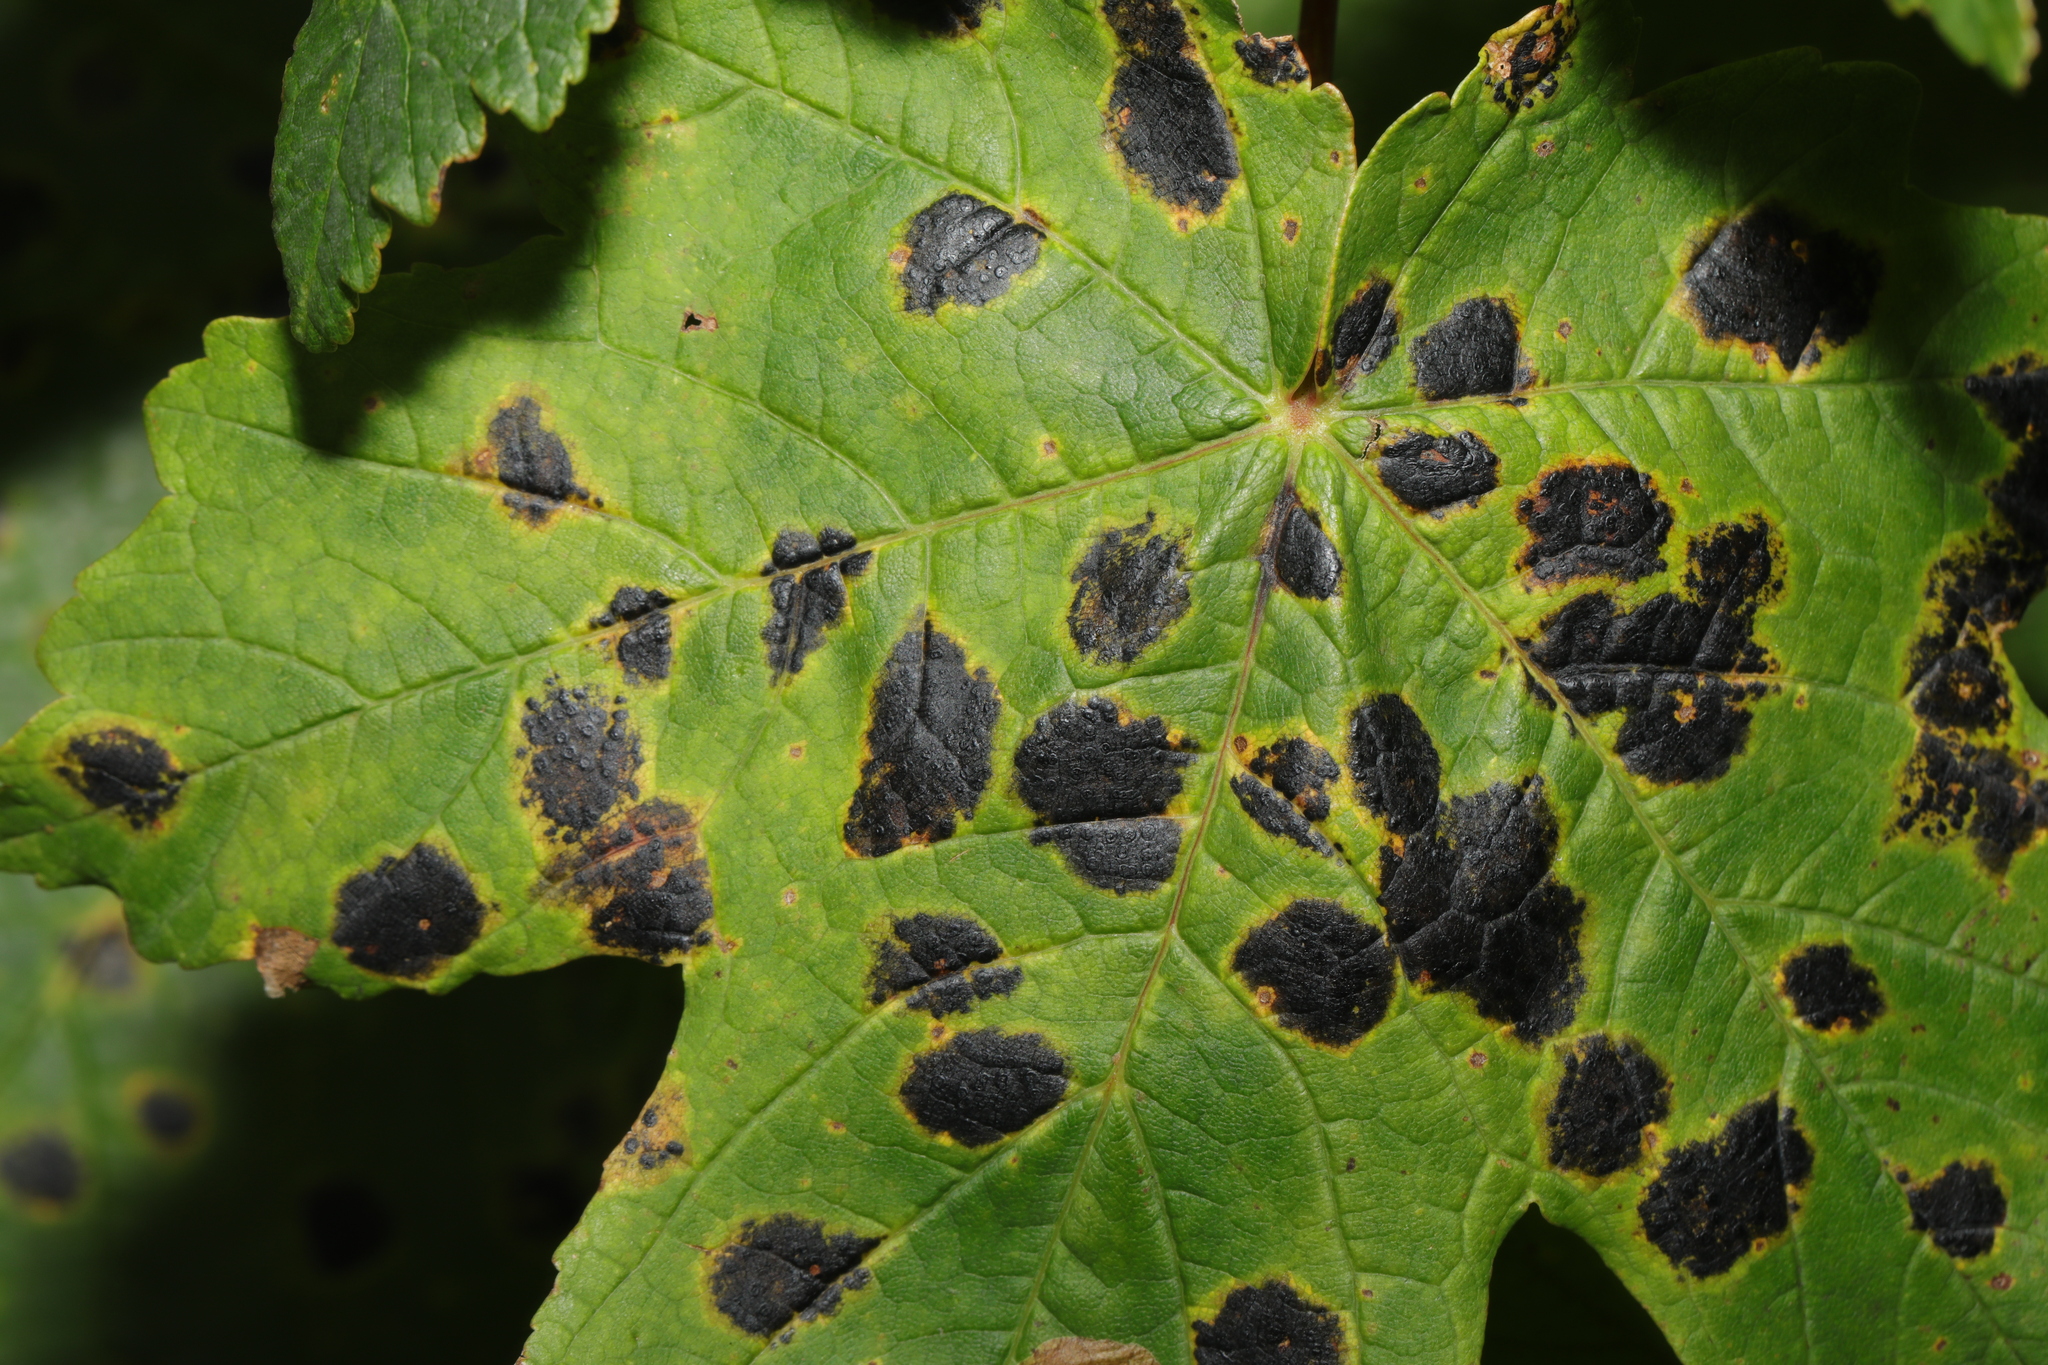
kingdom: Fungi
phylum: Ascomycota
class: Leotiomycetes
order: Rhytismatales
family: Rhytismataceae
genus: Rhytisma
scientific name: Rhytisma acerinum
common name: European tar spot
